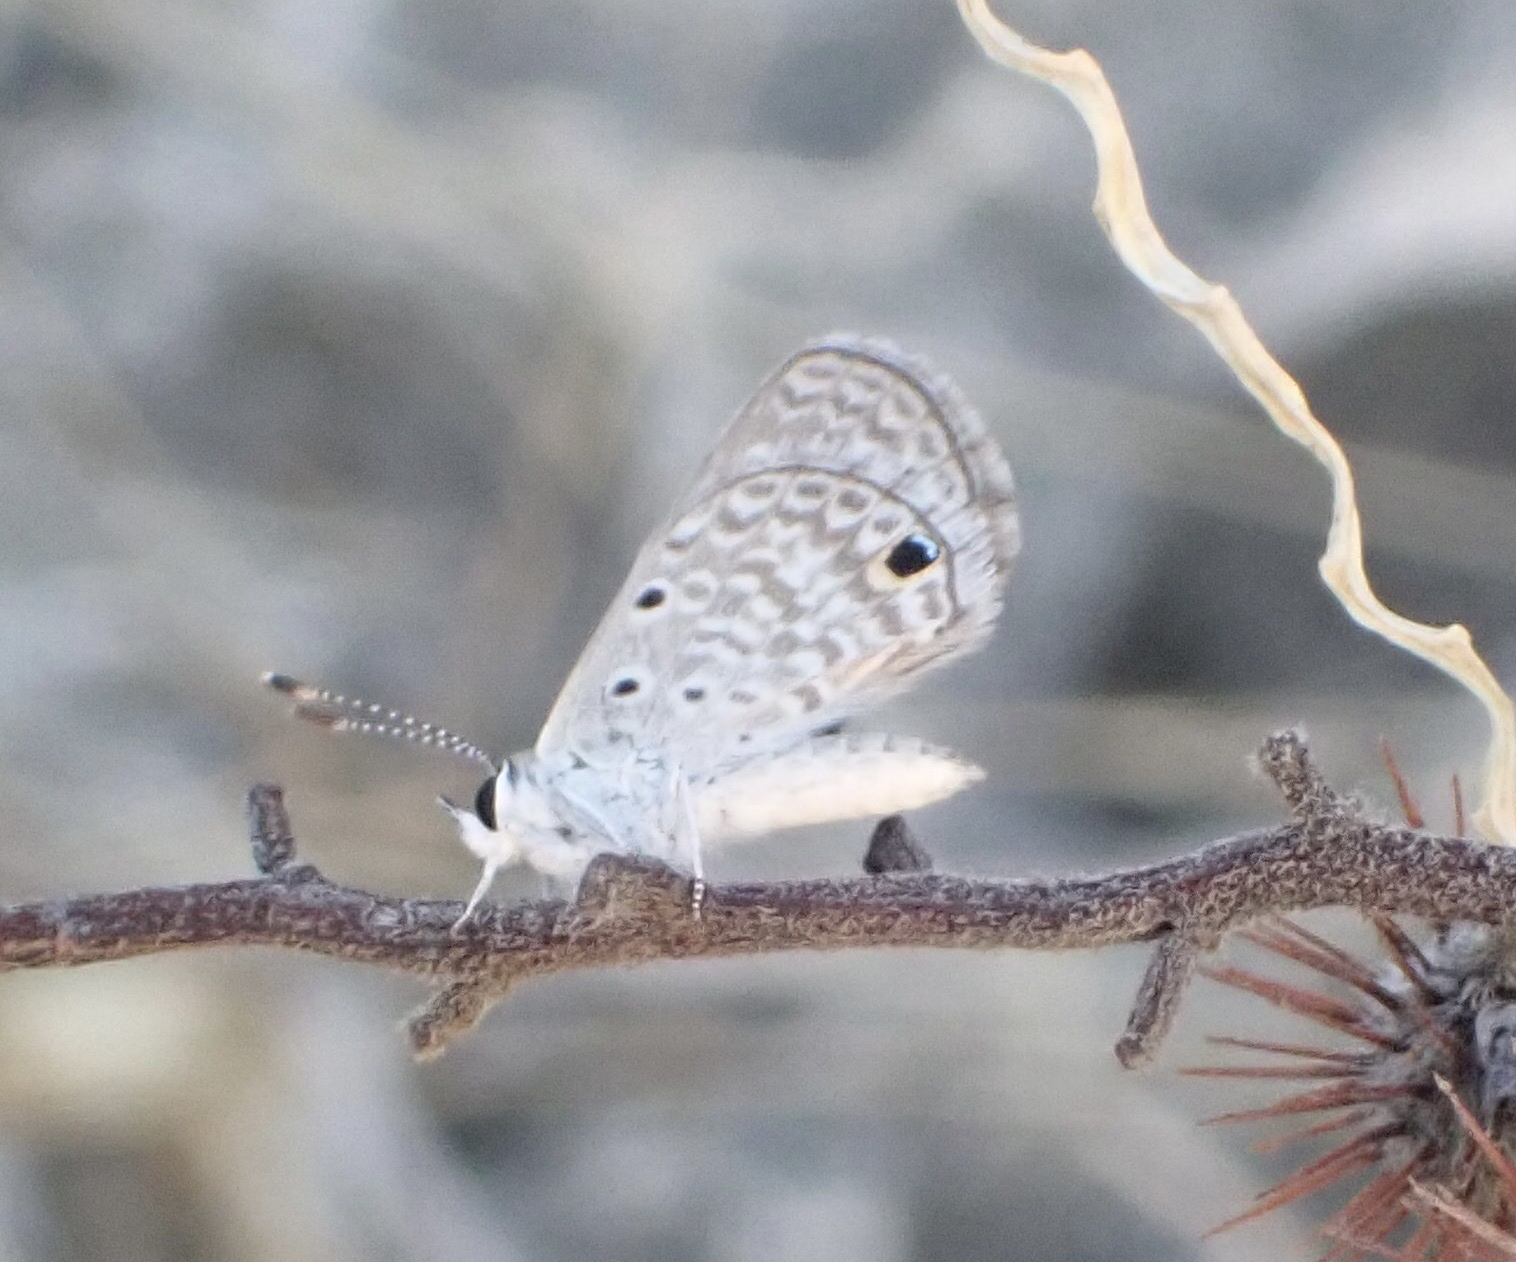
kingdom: Animalia
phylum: Arthropoda
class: Insecta
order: Lepidoptera
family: Lycaenidae
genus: Hemiargus
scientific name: Hemiargus hanno
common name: Common blue
